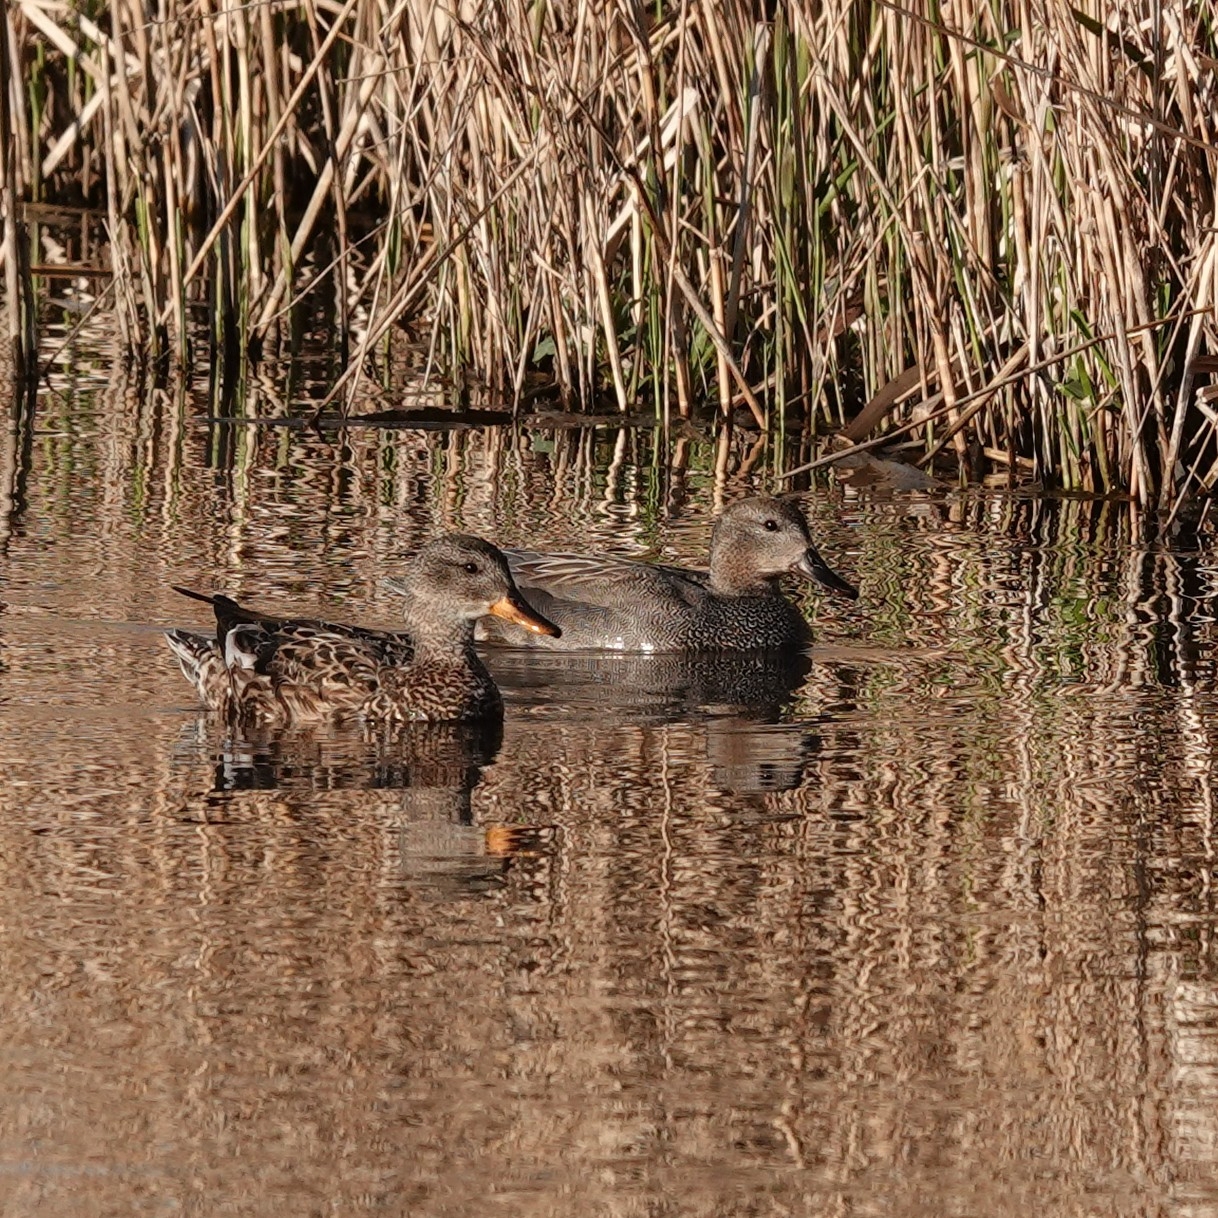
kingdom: Animalia
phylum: Chordata
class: Aves
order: Anseriformes
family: Anatidae
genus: Mareca
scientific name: Mareca strepera
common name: Gadwall
